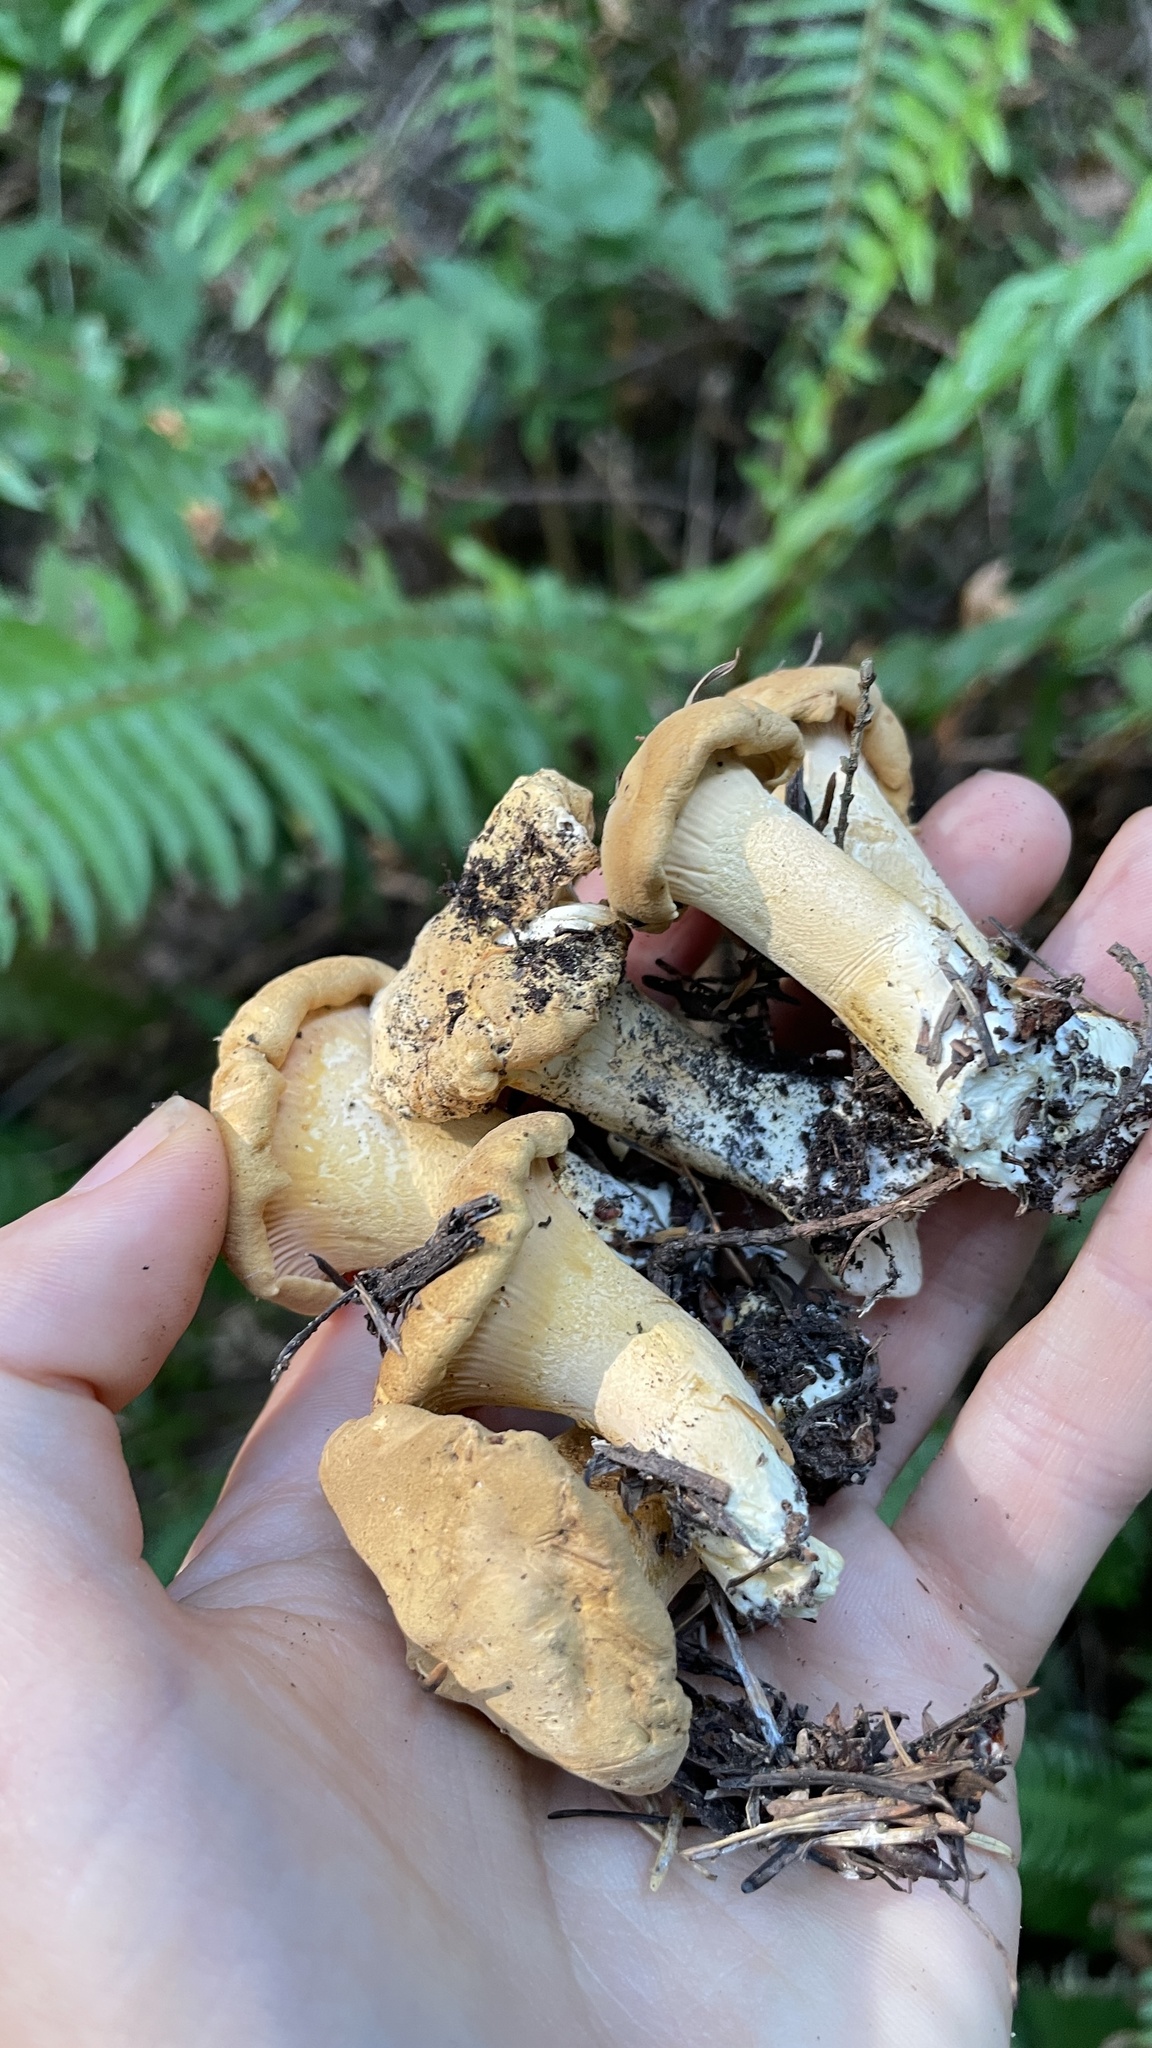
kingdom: Fungi
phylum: Basidiomycota
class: Agaricomycetes
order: Cantharellales
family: Hydnaceae
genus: Cantharellus
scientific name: Cantharellus formosus
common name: Pacific golden chanterelle
